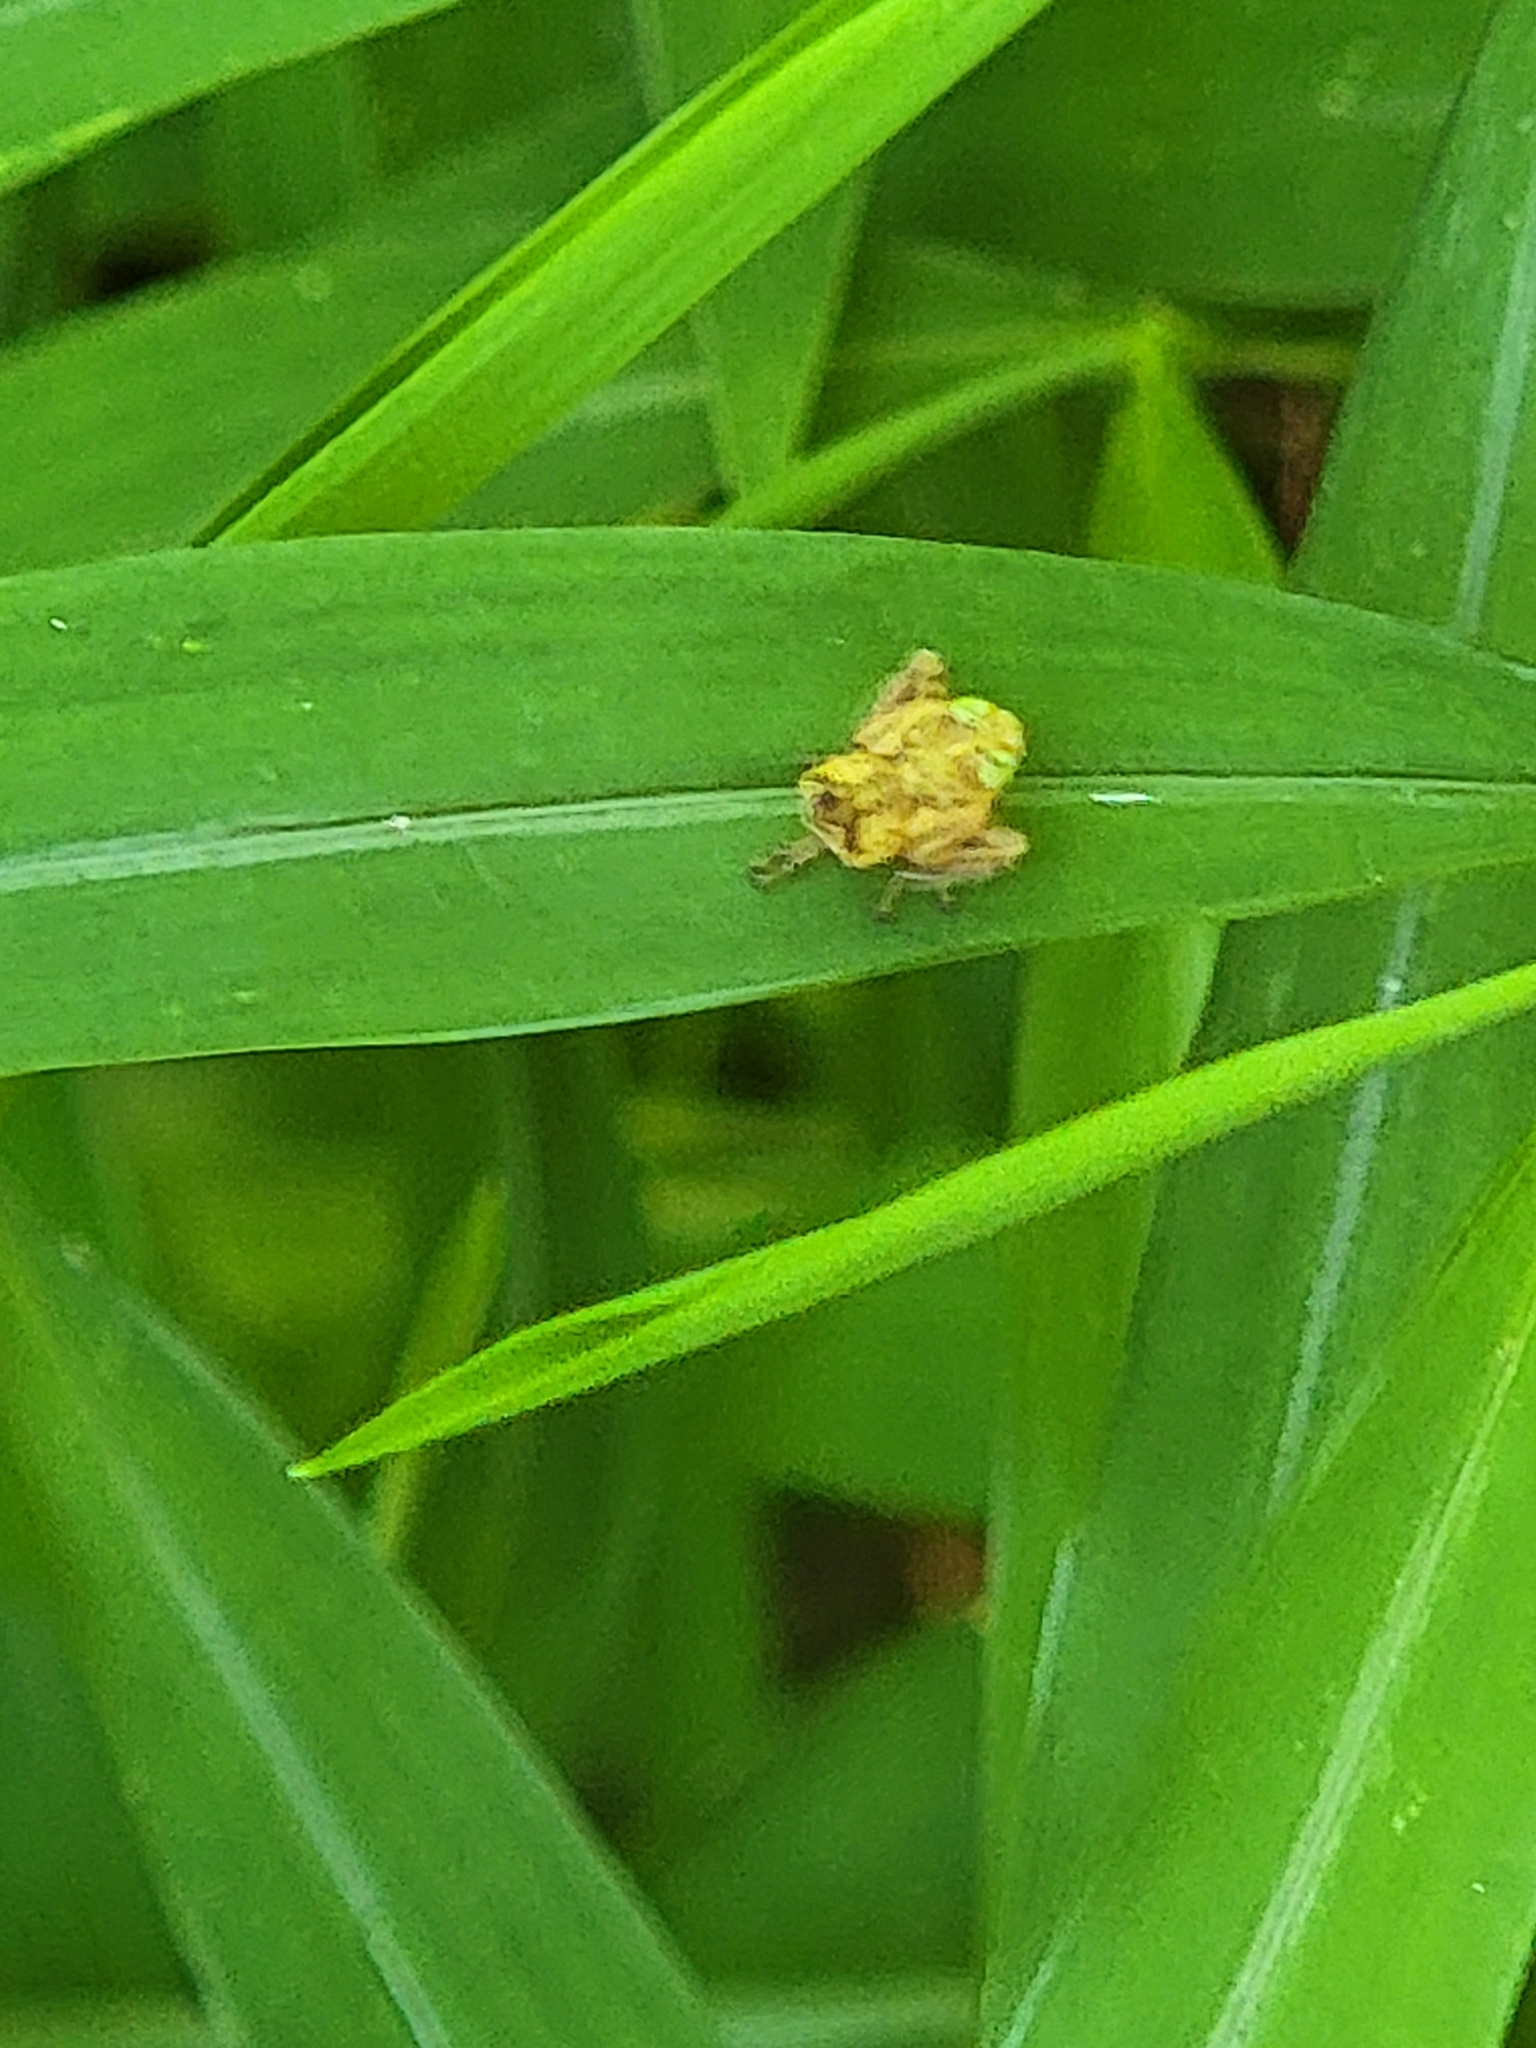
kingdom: Animalia
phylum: Arthropoda
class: Insecta
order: Hemiptera
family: Cicadellidae
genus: Jikradia
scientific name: Jikradia olitoria
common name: Coppery leafhopper
